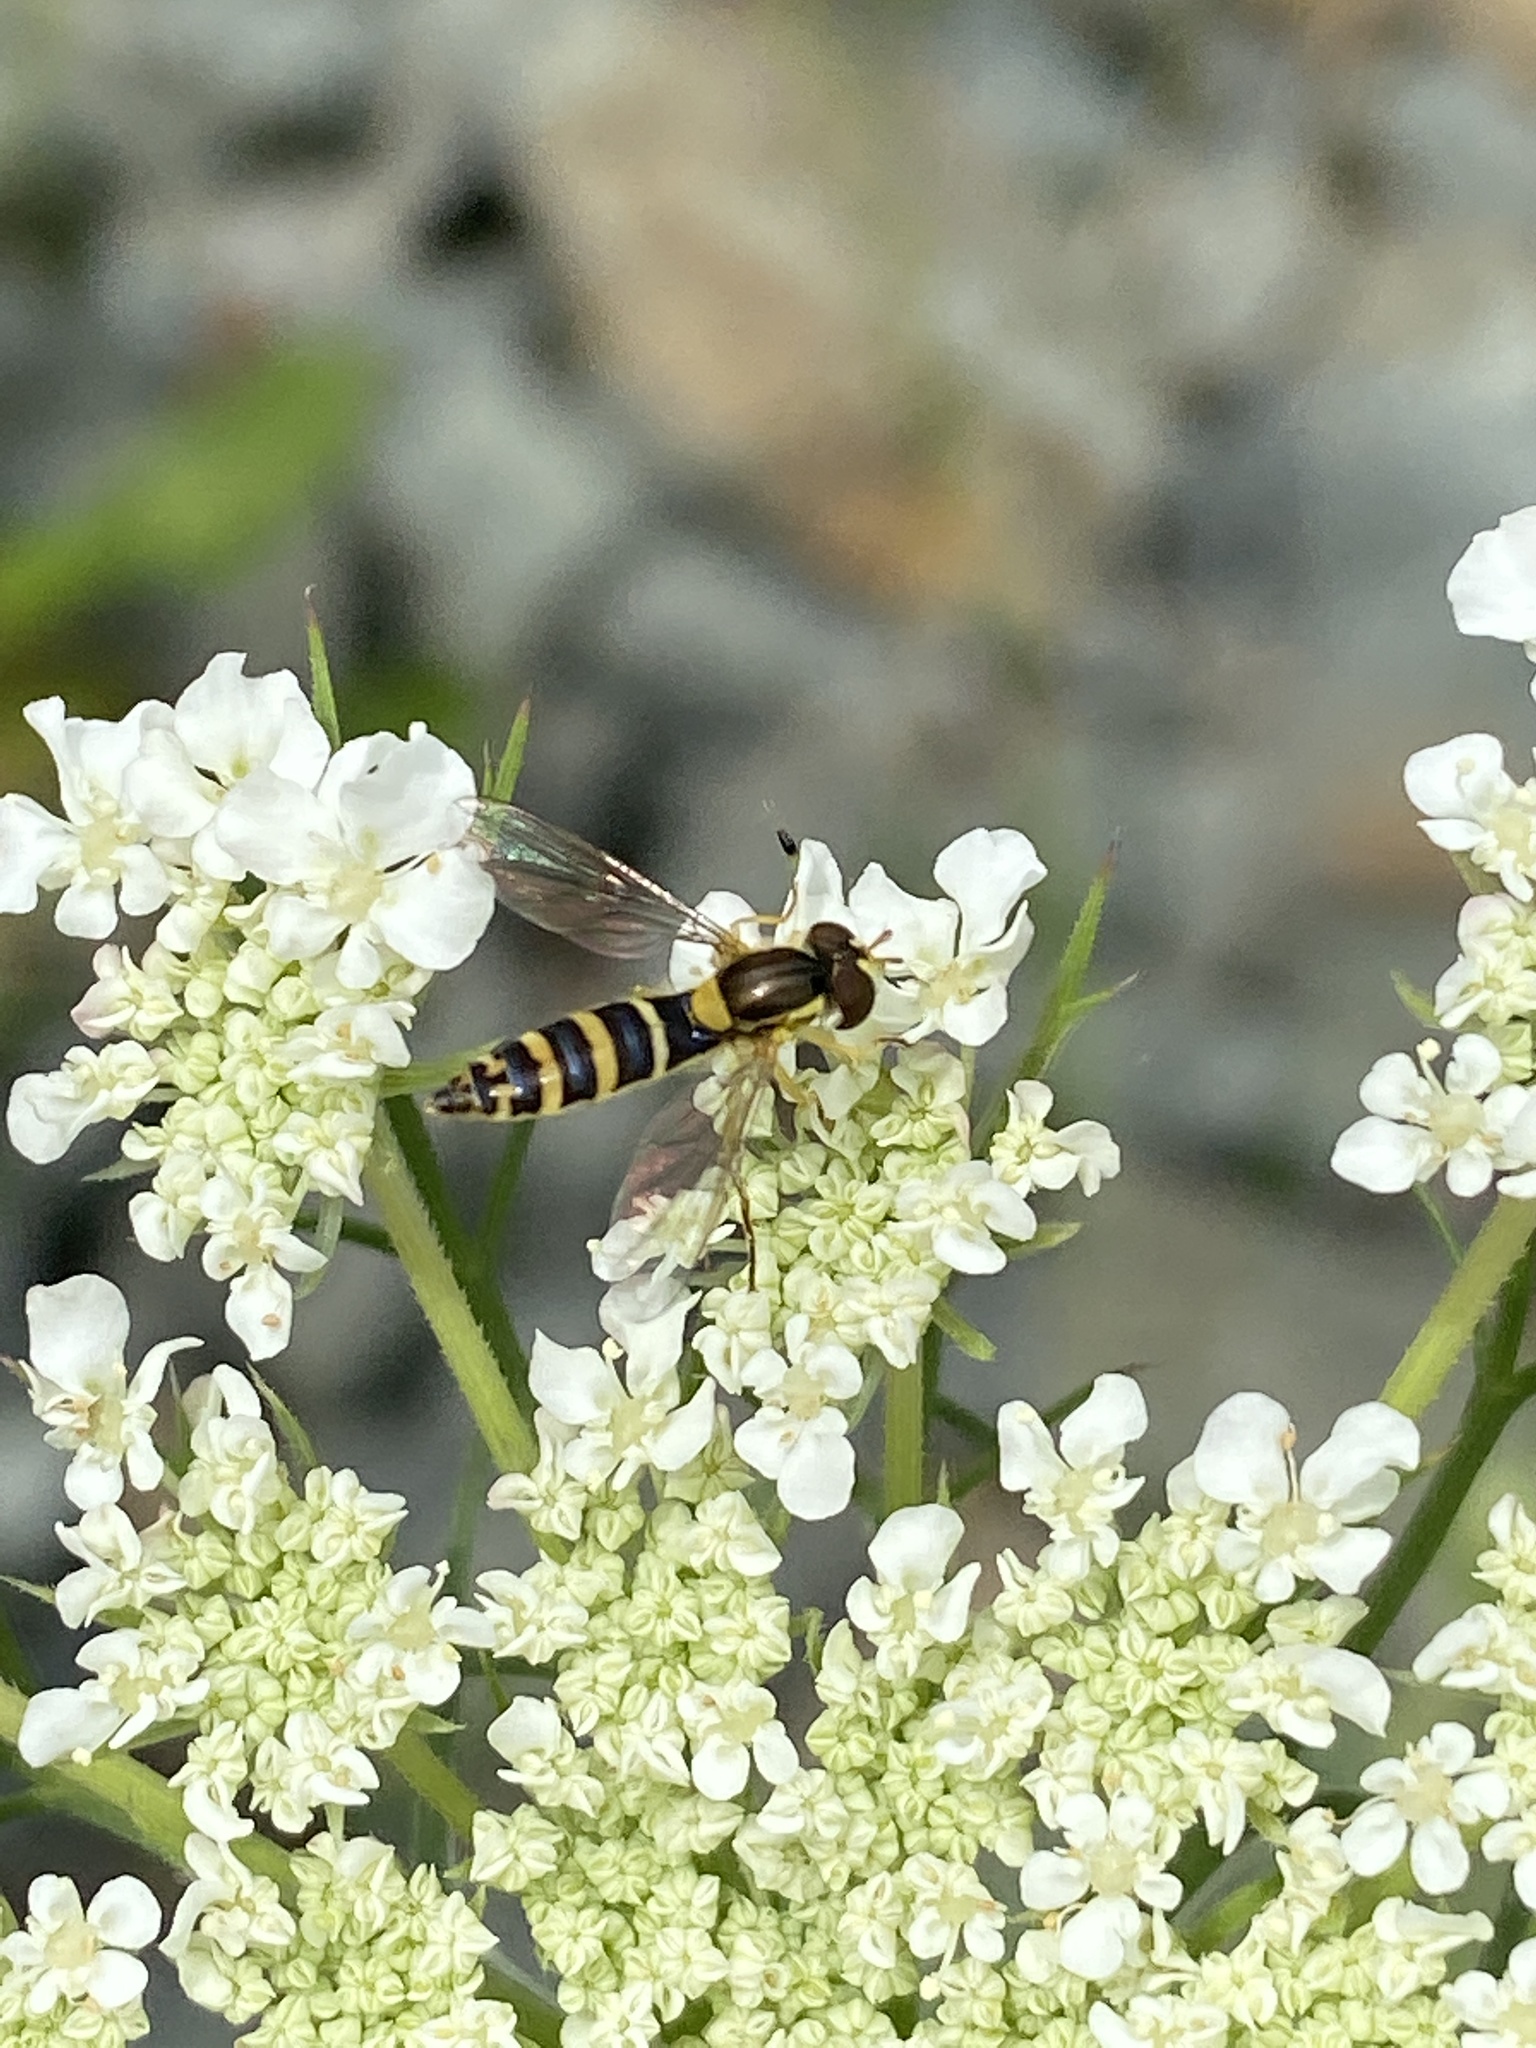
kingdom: Animalia
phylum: Arthropoda
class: Insecta
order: Diptera
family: Syrphidae
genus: Sphaerophoria
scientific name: Sphaerophoria scripta
